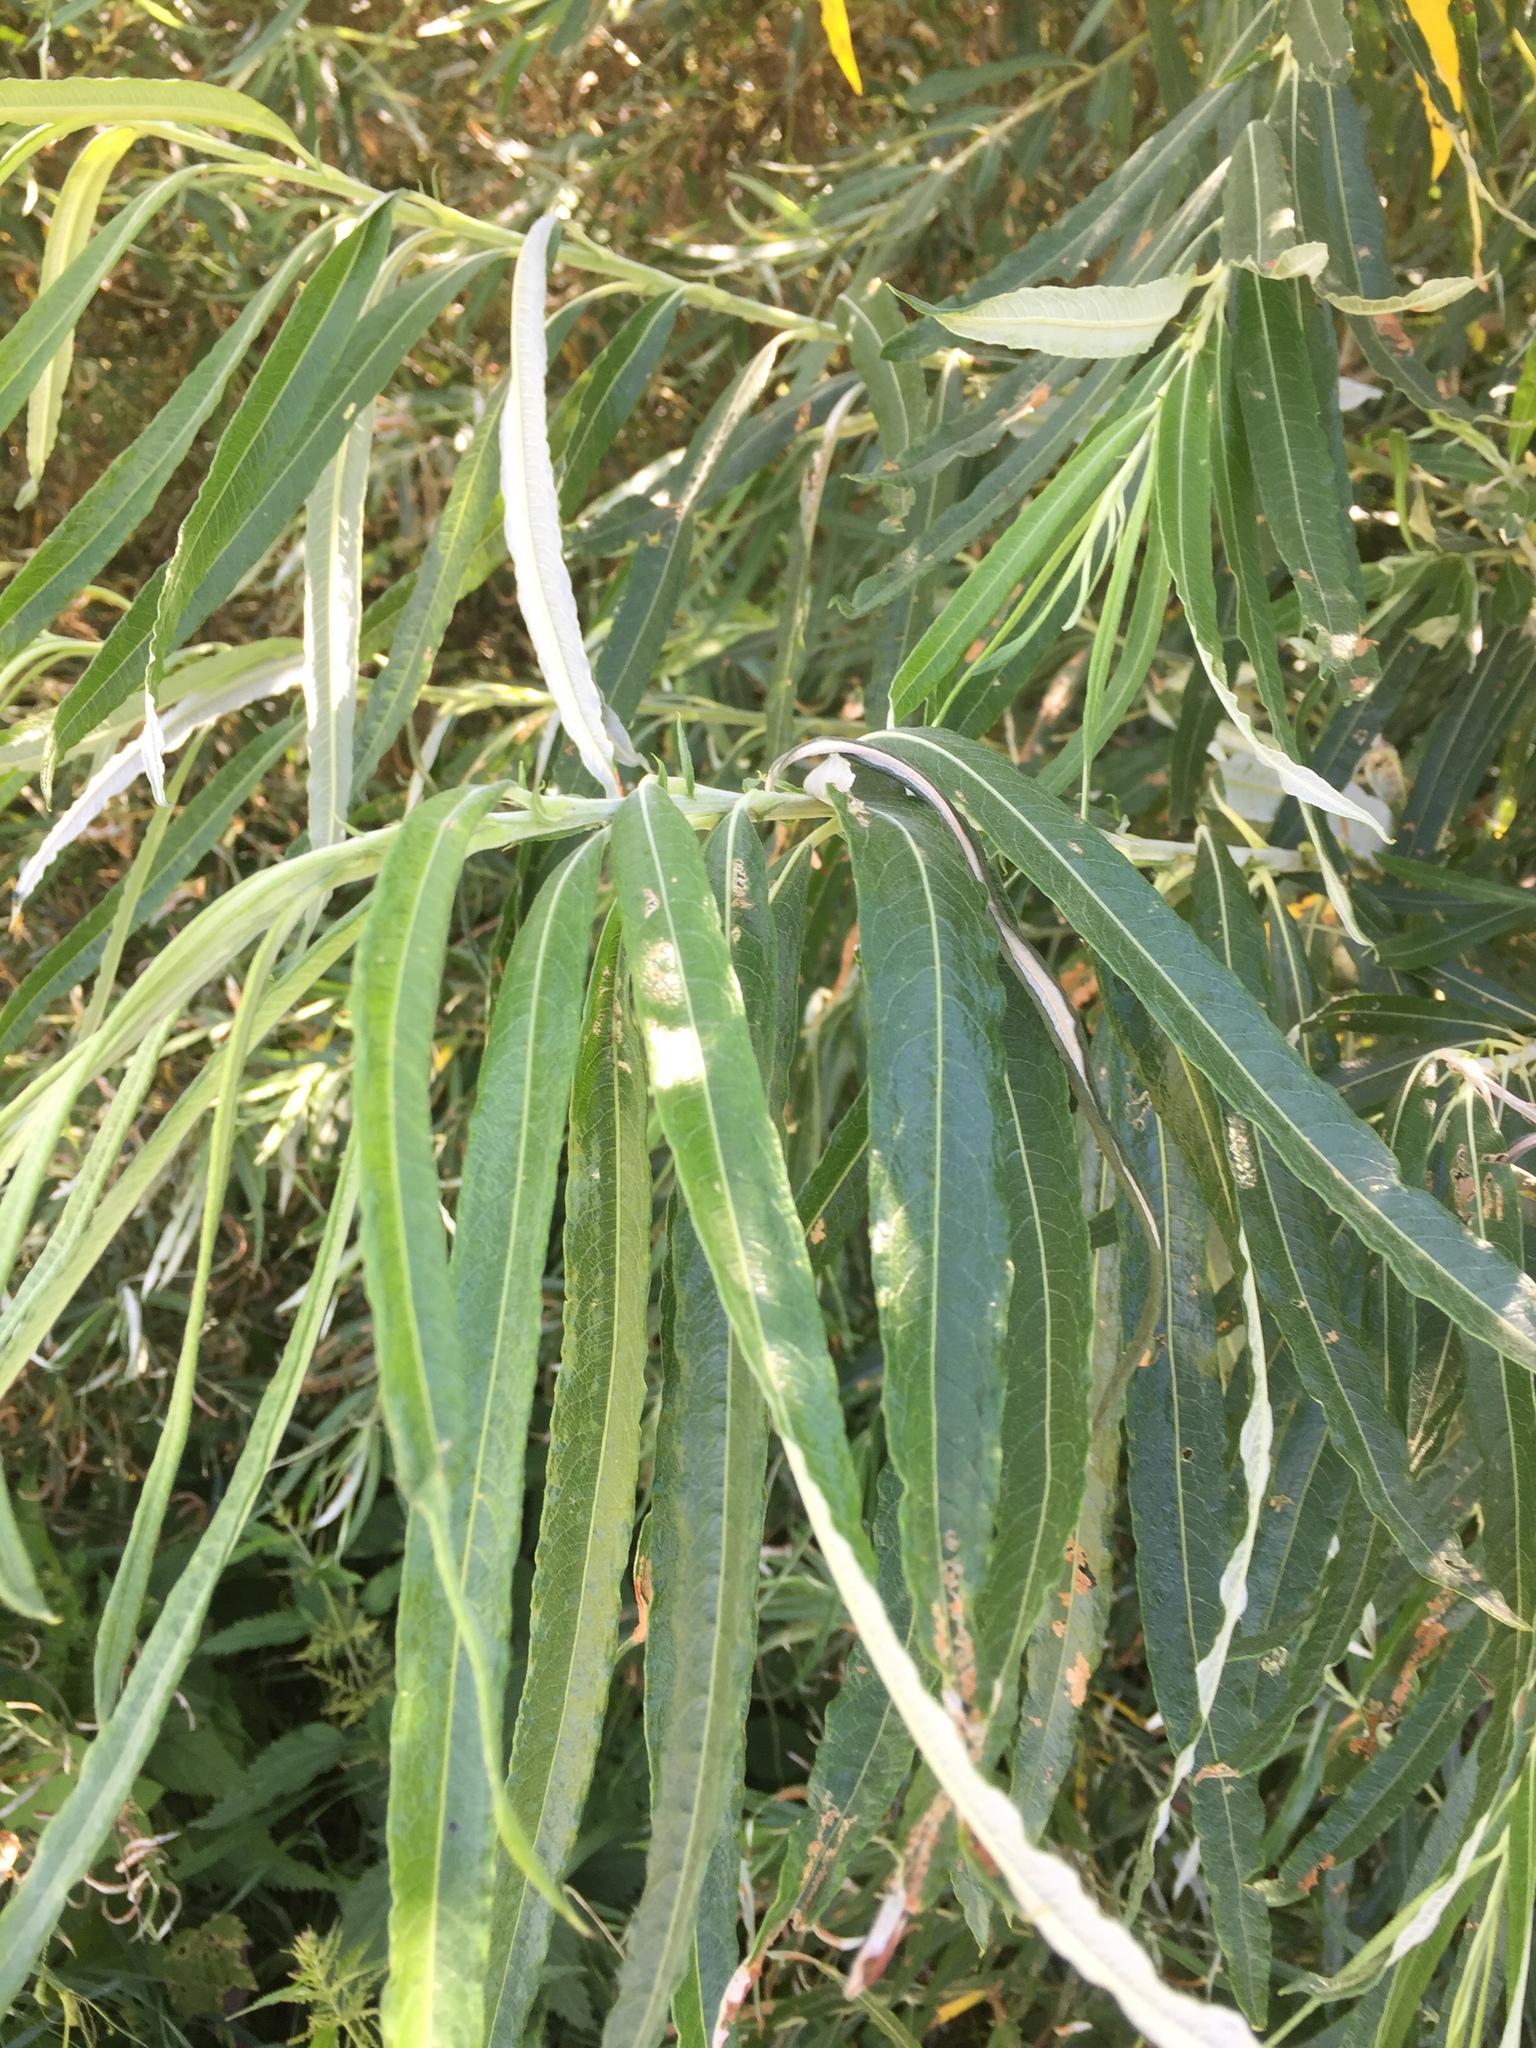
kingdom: Plantae
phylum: Tracheophyta
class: Magnoliopsida
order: Malpighiales
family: Salicaceae
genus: Salix
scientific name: Salix viminalis
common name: Osier
